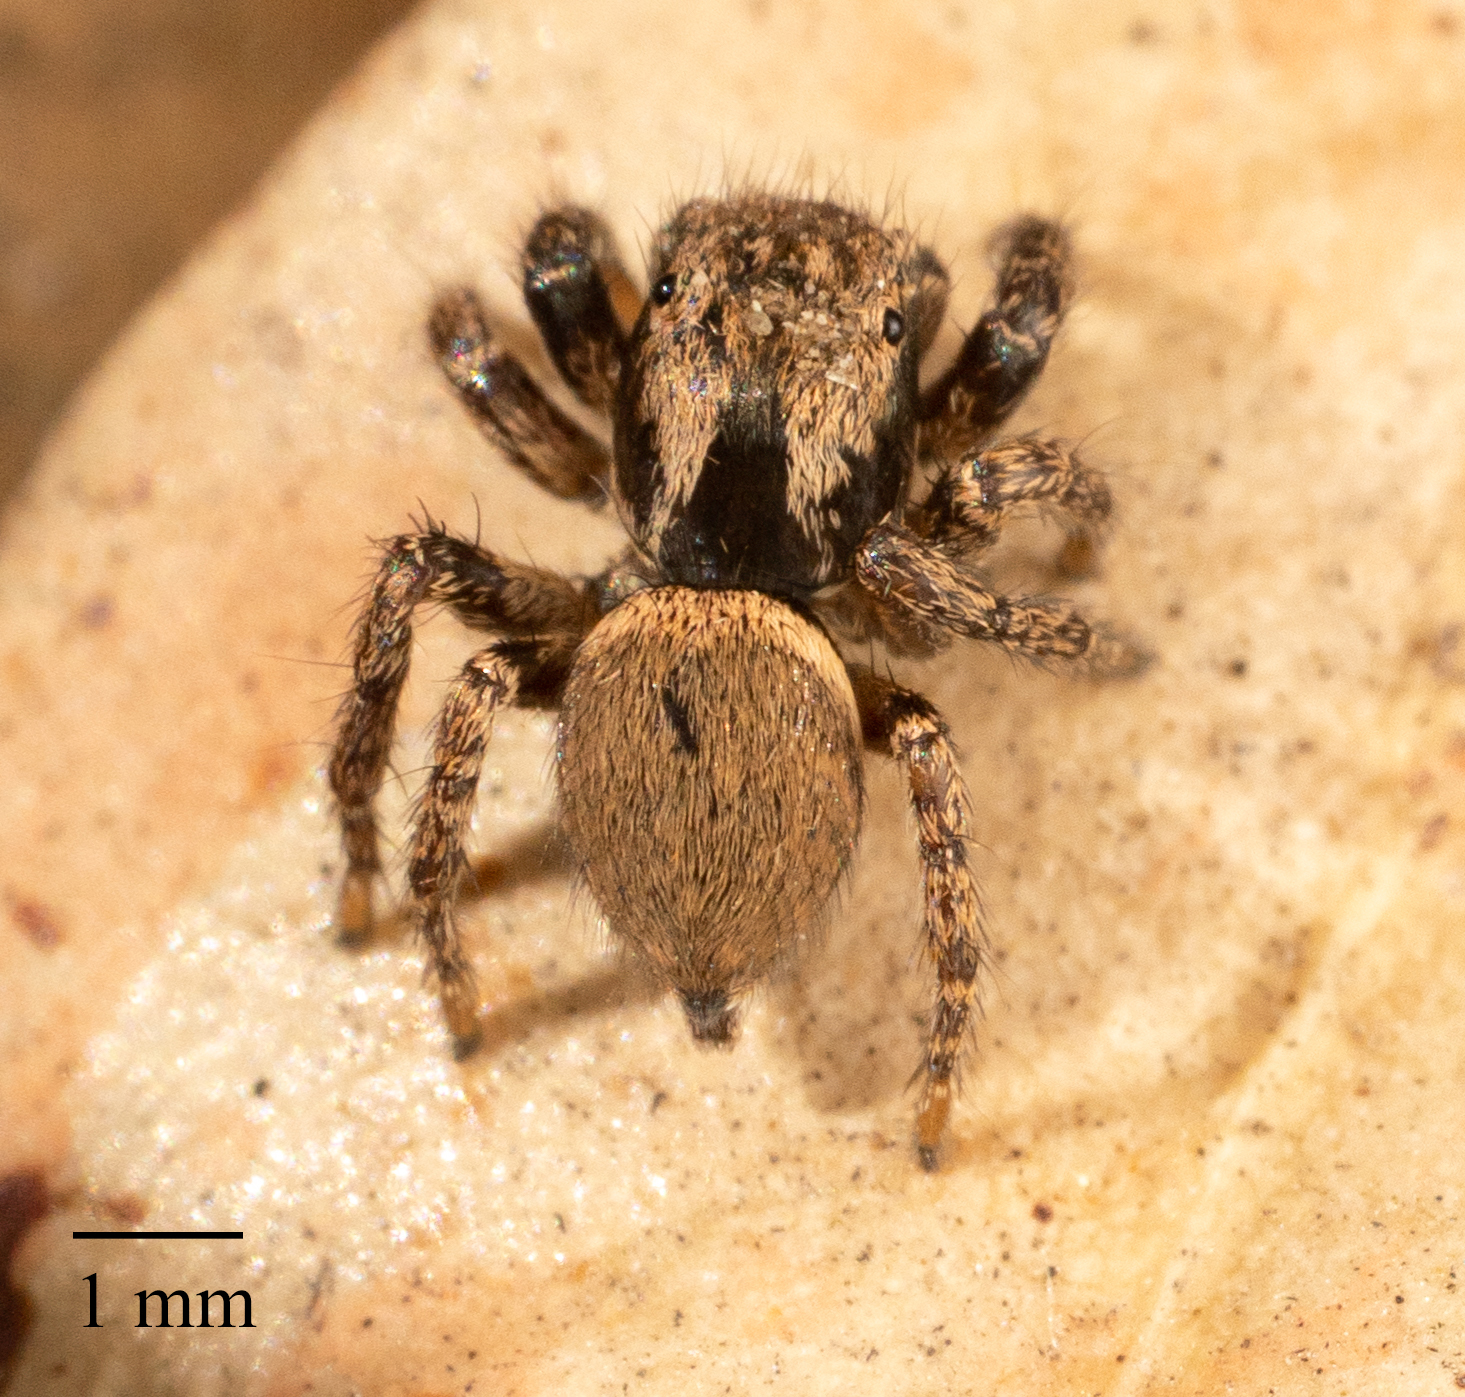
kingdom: Animalia
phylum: Arthropoda
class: Arachnida
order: Araneae
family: Salticidae
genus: Habronattus
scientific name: Habronattus oregonensis
